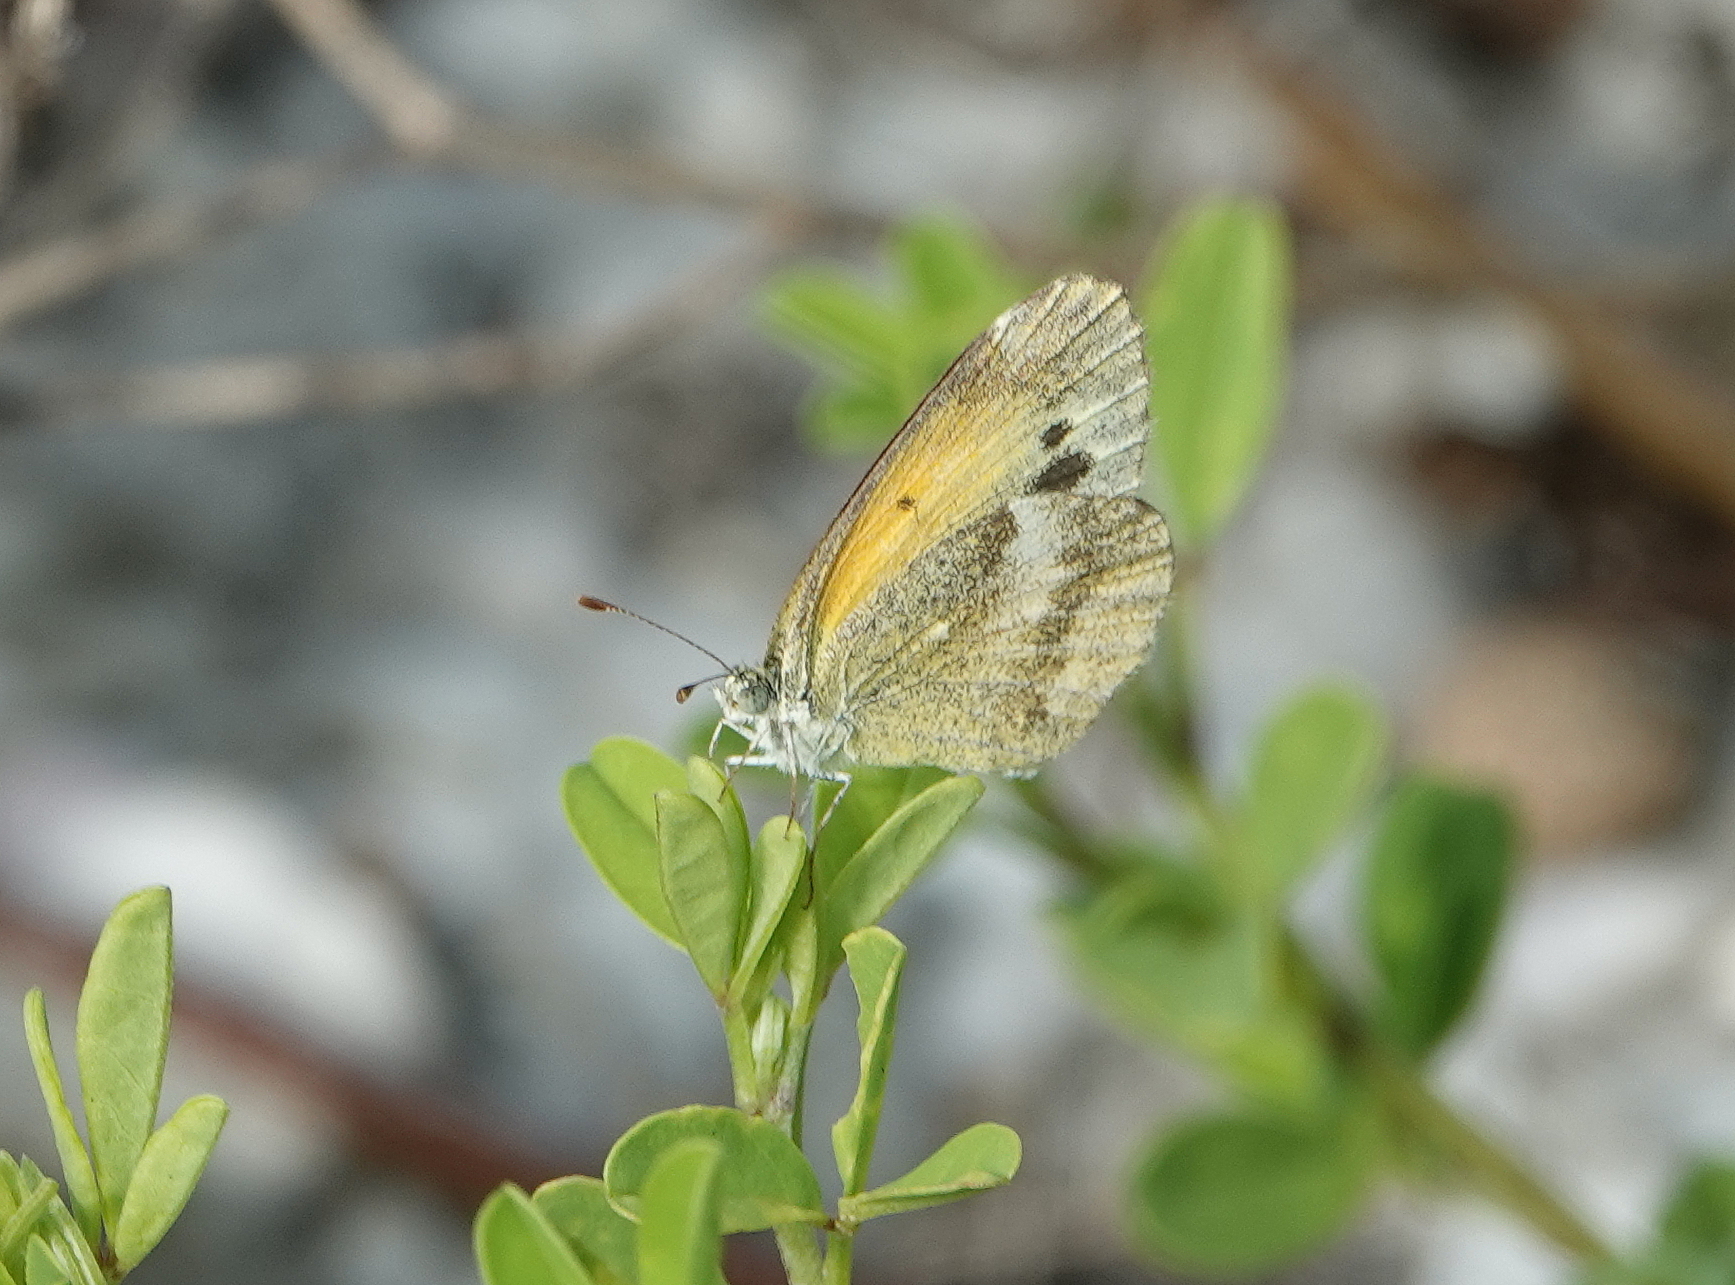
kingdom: Animalia
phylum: Arthropoda
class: Insecta
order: Lepidoptera
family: Pieridae
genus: Nathalis
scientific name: Nathalis iole
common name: Dainty sulphur
